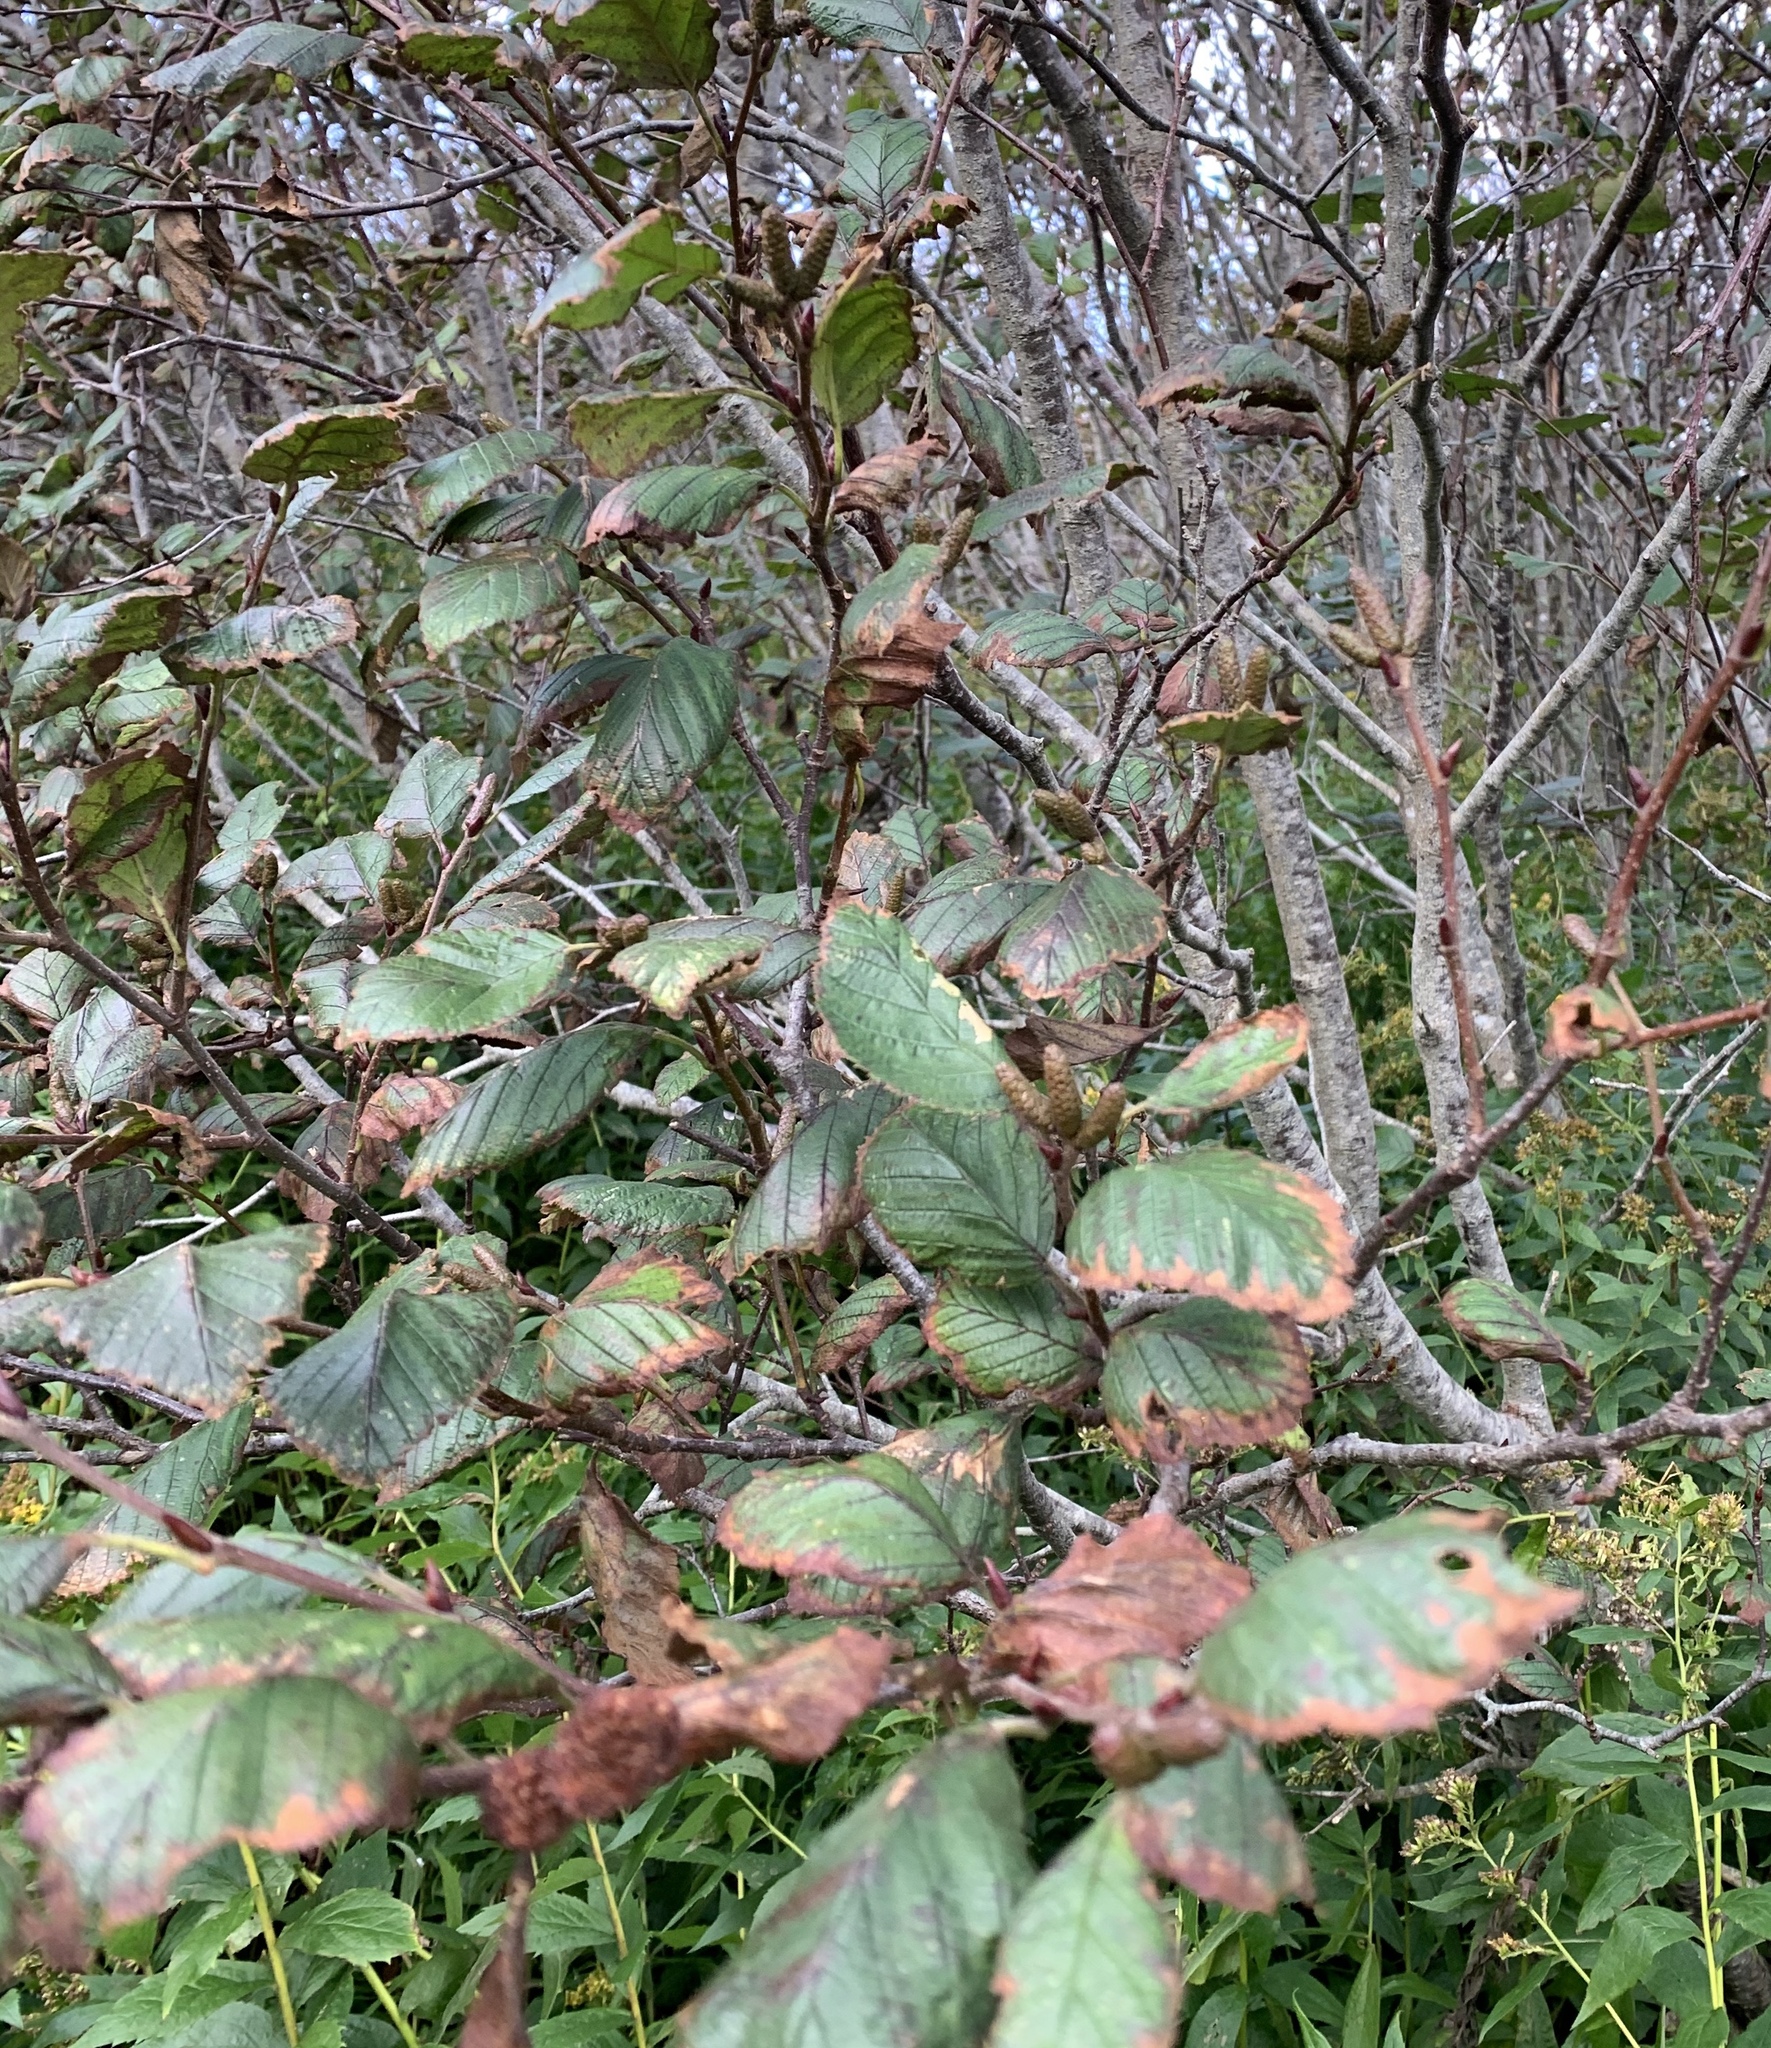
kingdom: Plantae
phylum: Tracheophyta
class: Magnoliopsida
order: Fagales
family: Betulaceae
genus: Alnus
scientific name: Alnus alnobetula
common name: Green alder
